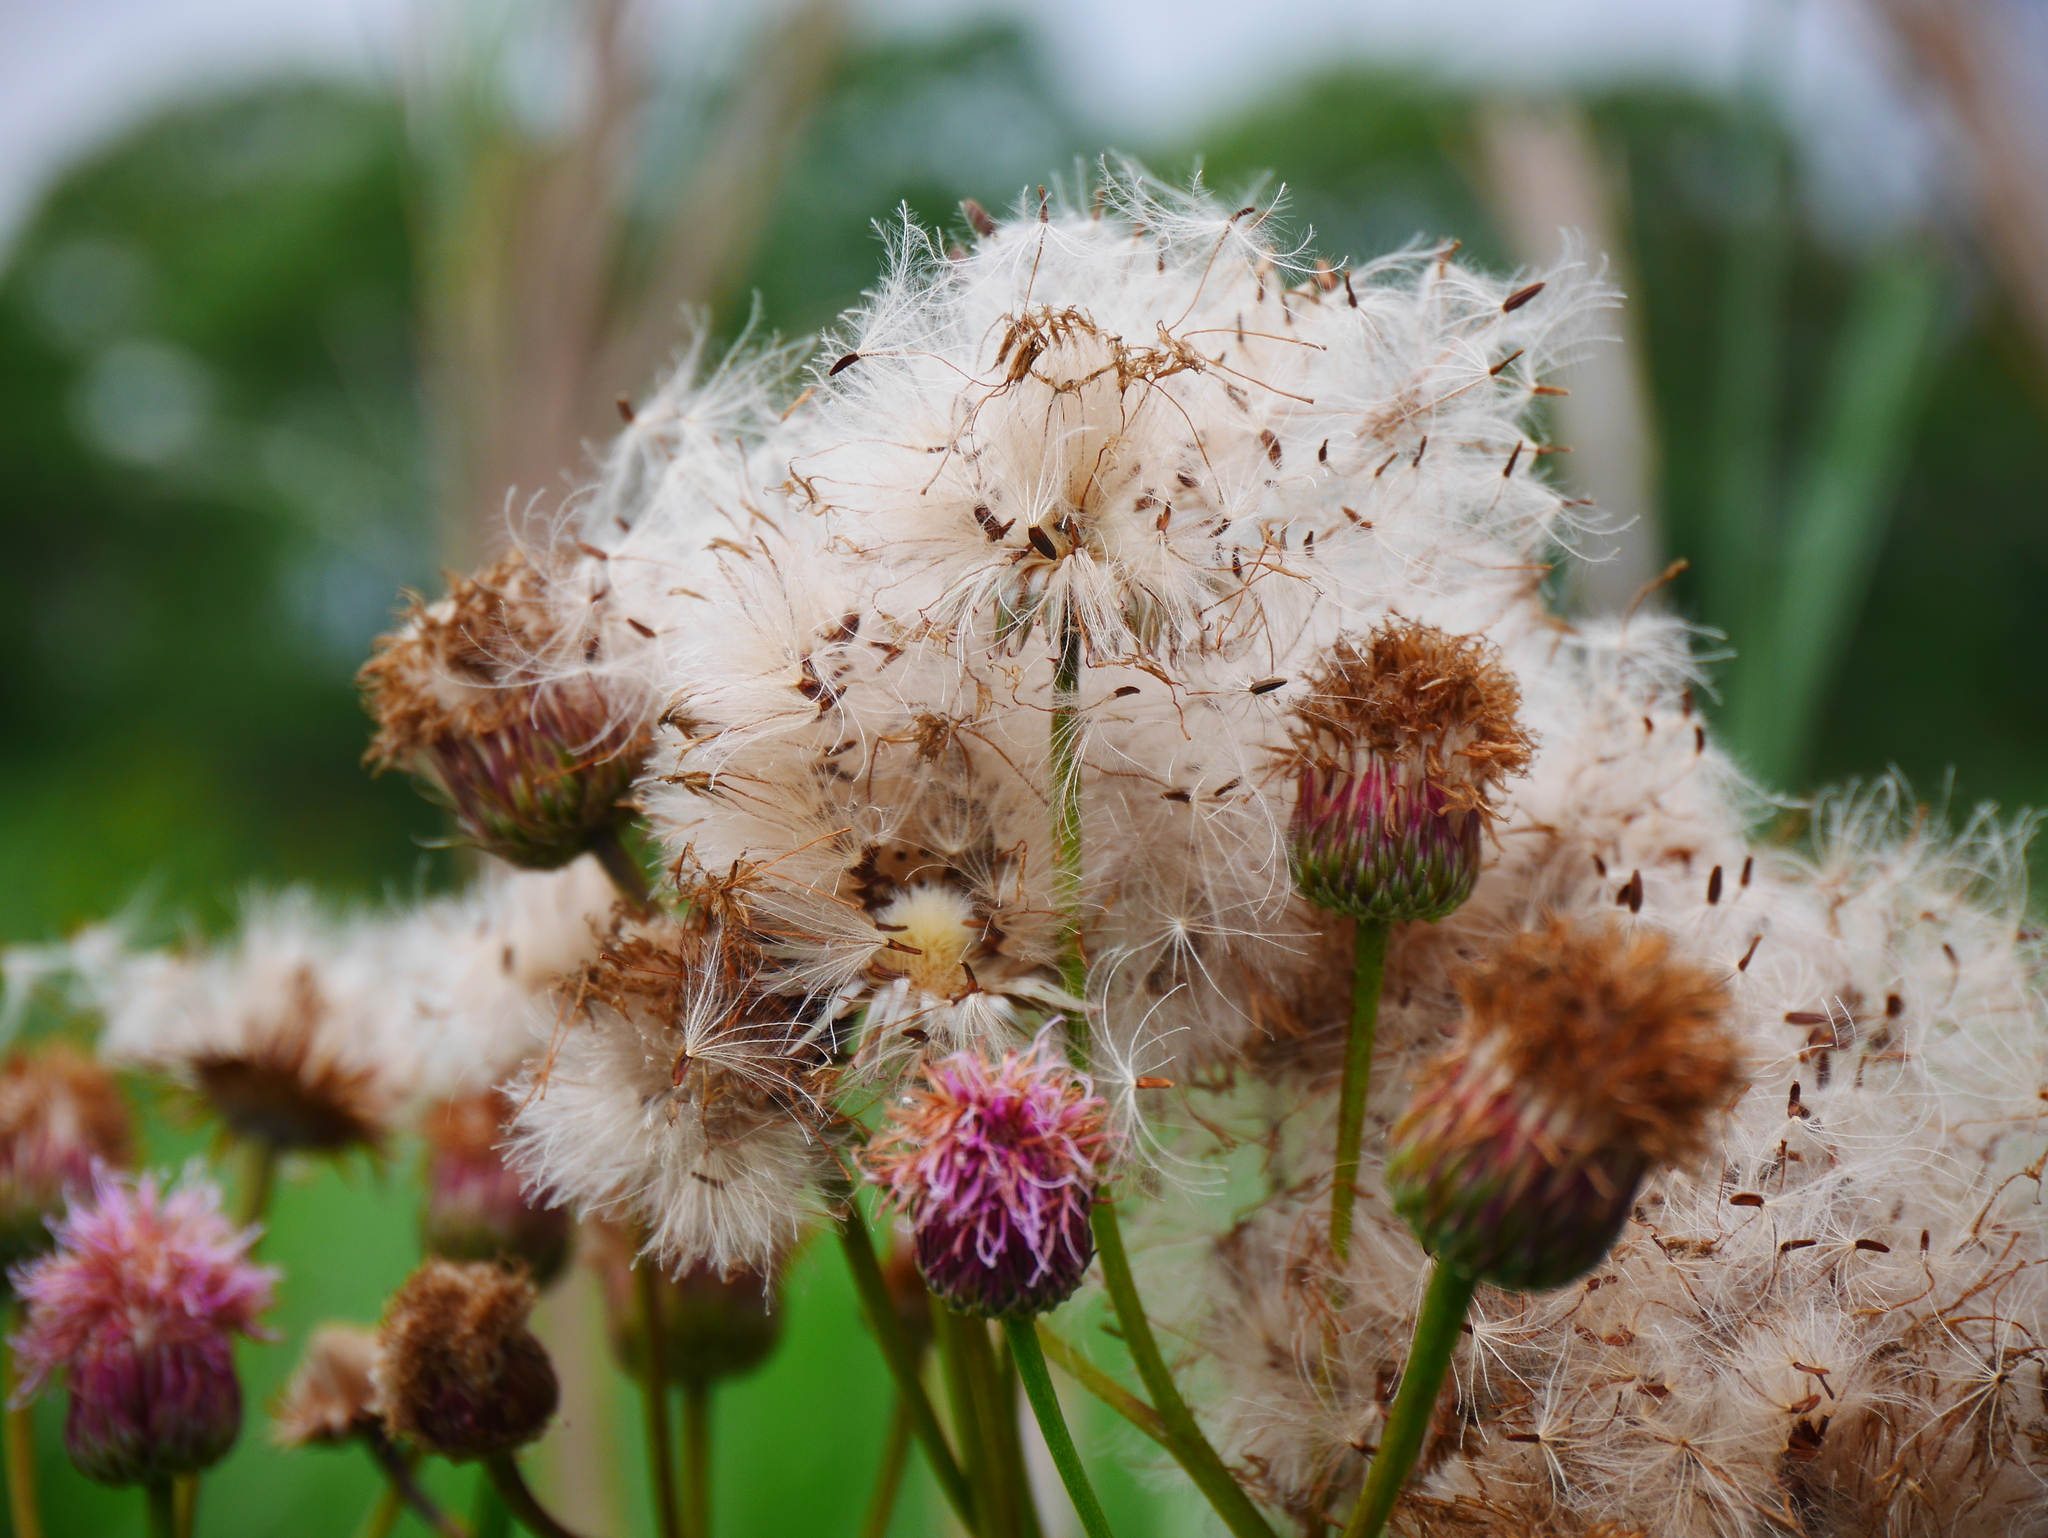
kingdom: Plantae
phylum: Tracheophyta
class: Magnoliopsida
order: Asterales
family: Asteraceae
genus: Saussurea
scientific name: Saussurea lyrata
